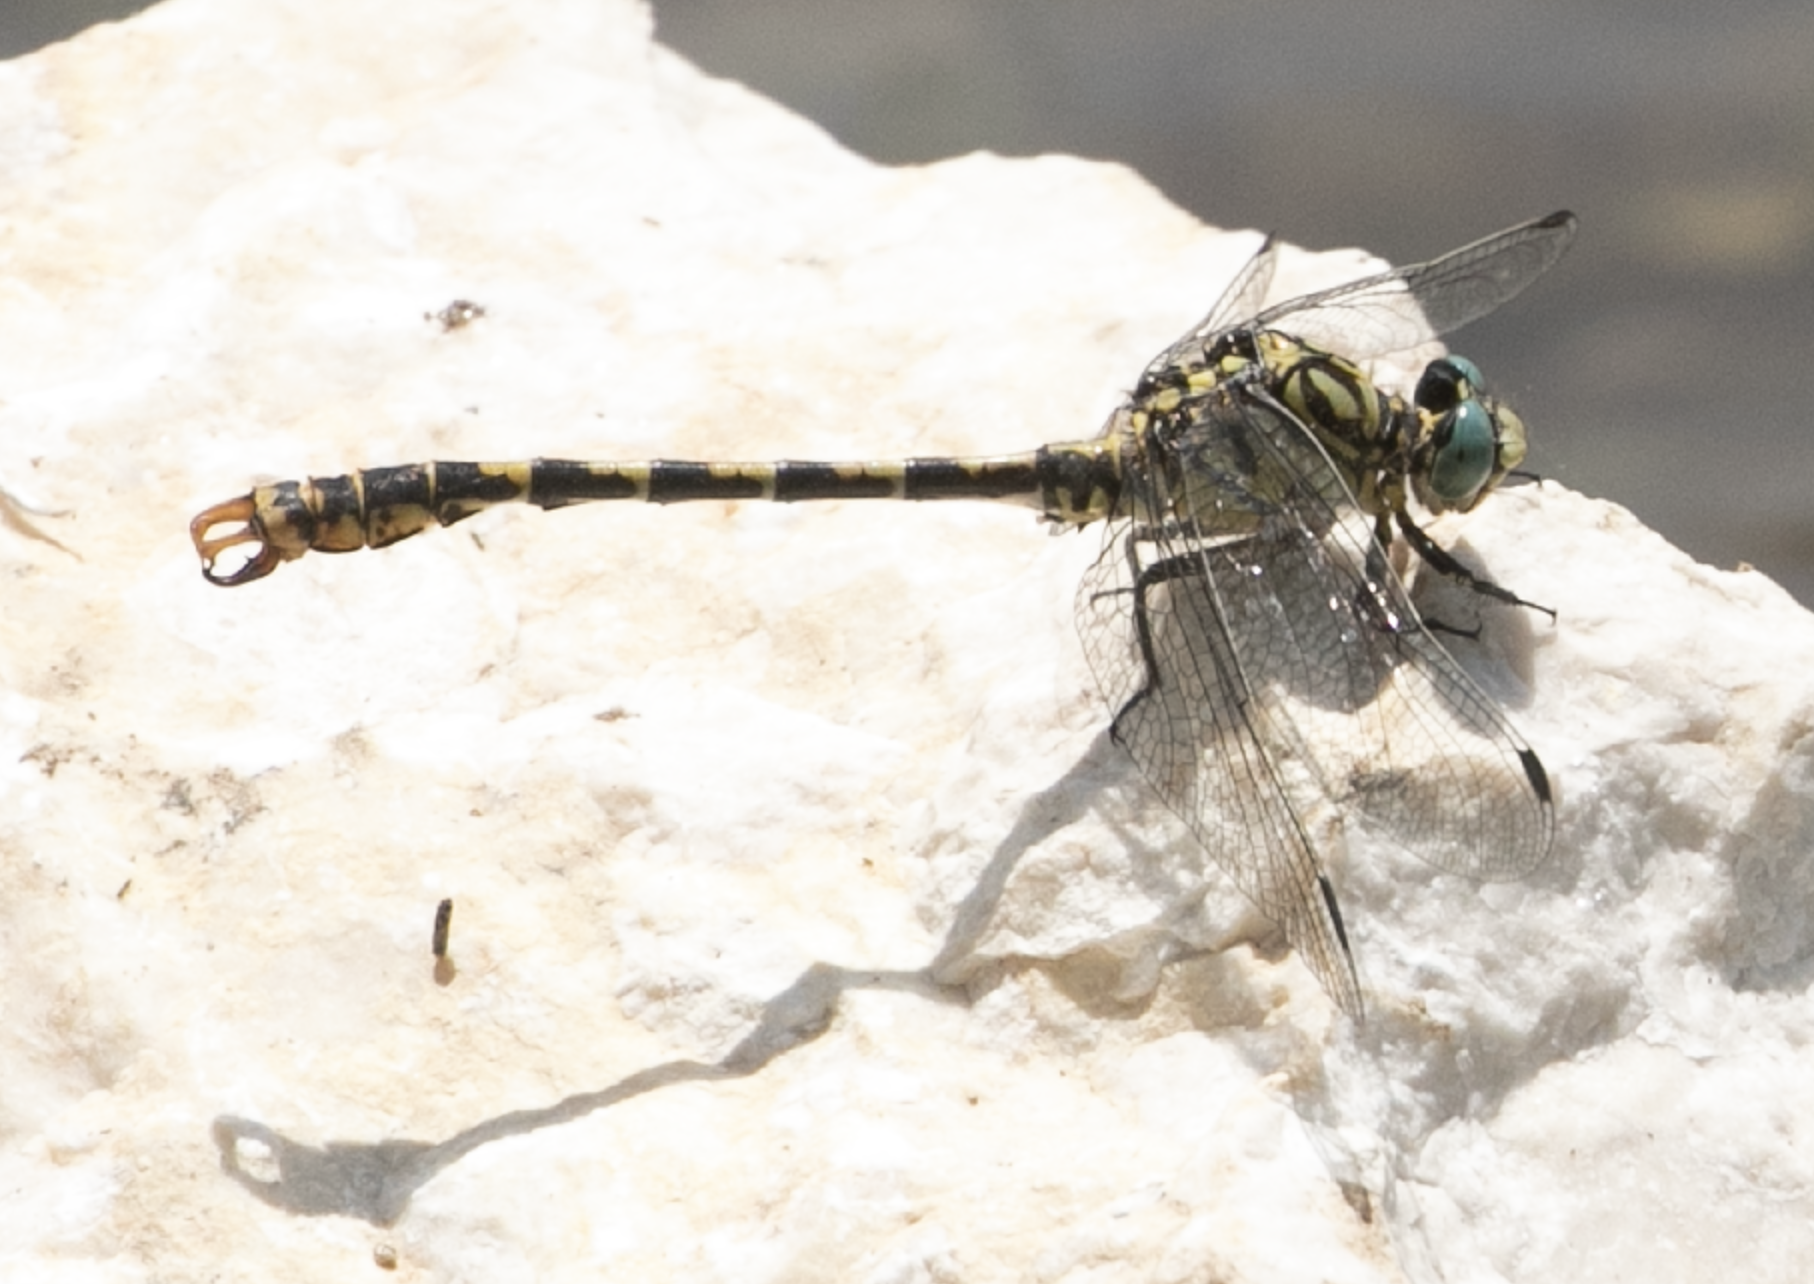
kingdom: Animalia
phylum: Arthropoda
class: Insecta
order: Odonata
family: Gomphidae
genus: Onychogomphus
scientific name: Onychogomphus forcipatus
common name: Small pincertail
